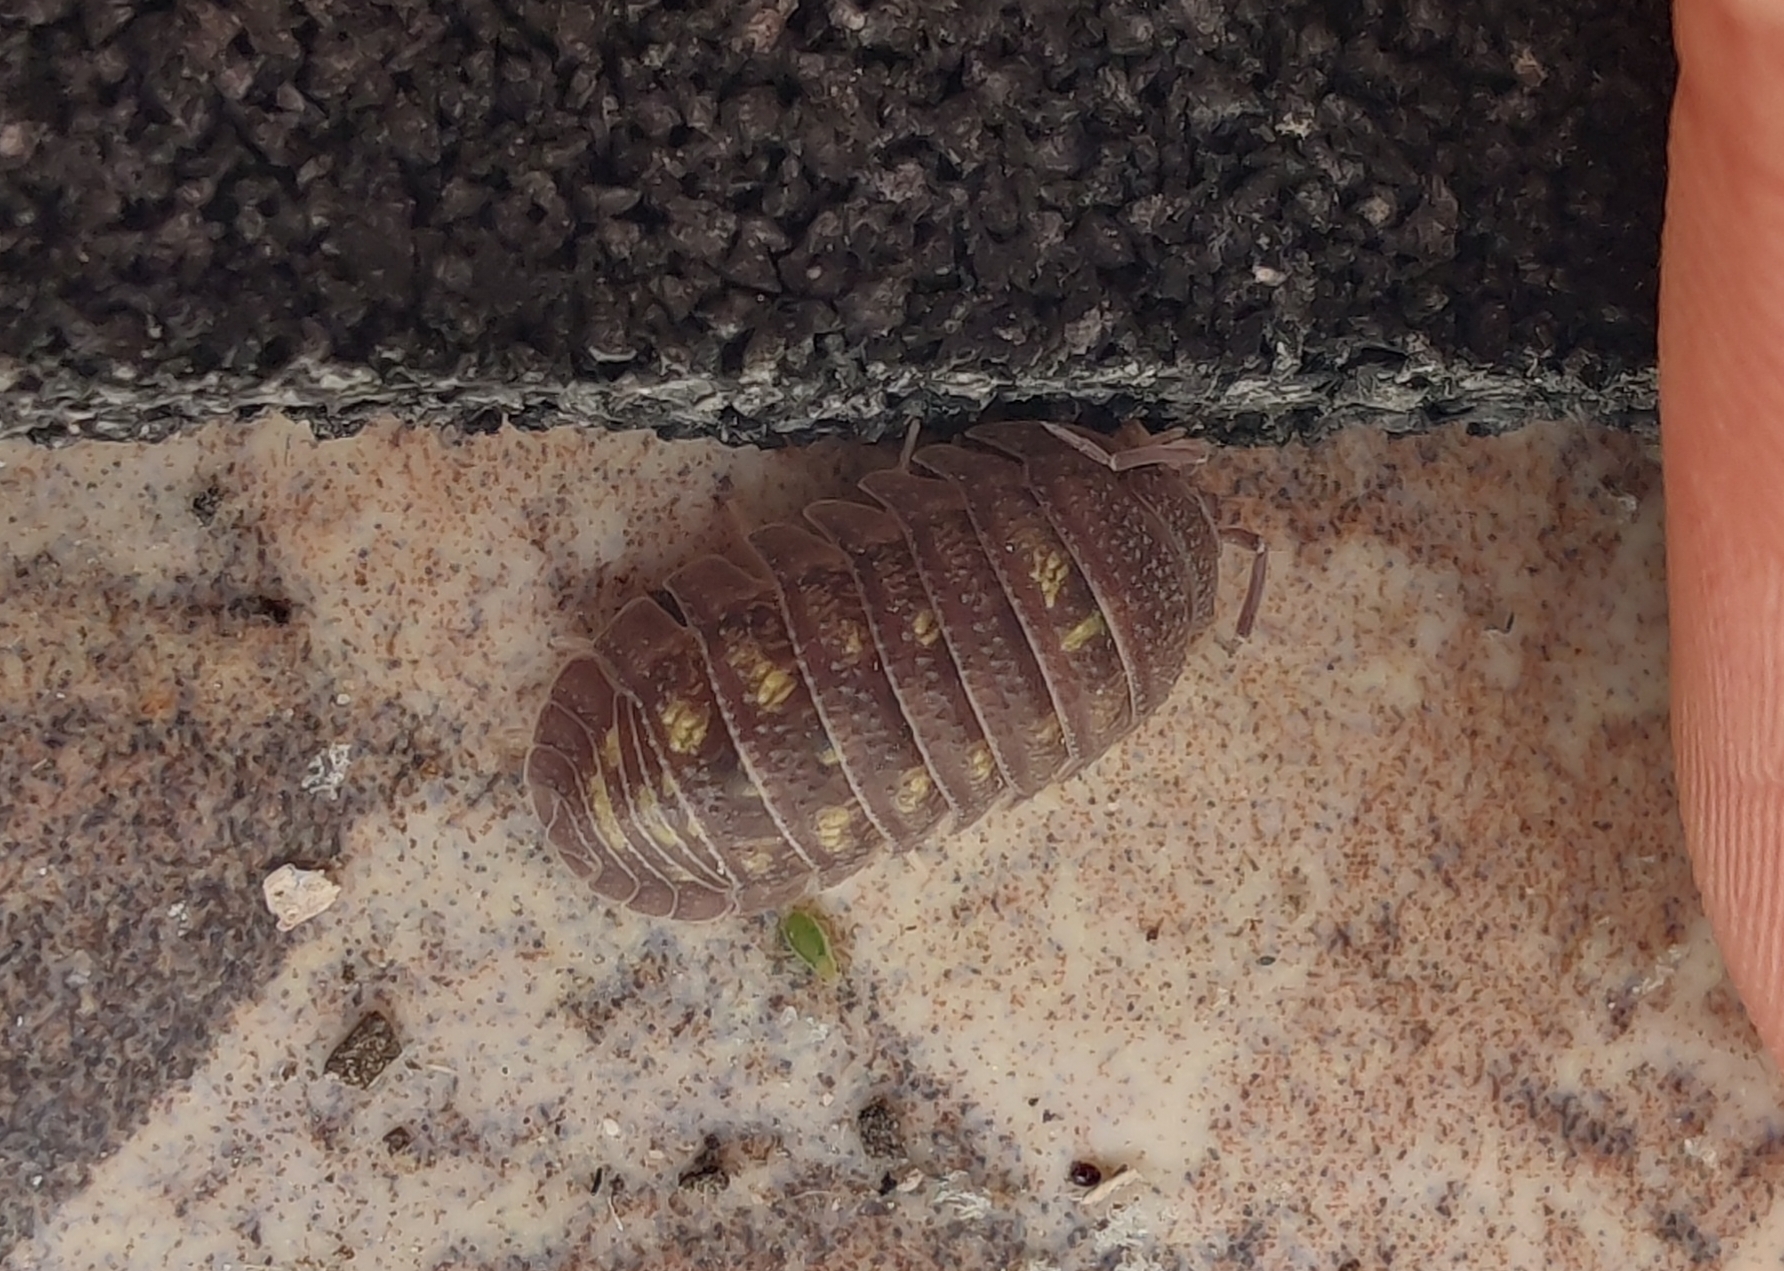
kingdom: Animalia
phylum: Arthropoda
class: Malacostraca
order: Isopoda
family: Armadillidiidae
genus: Armadillidium
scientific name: Armadillidium granulatum
